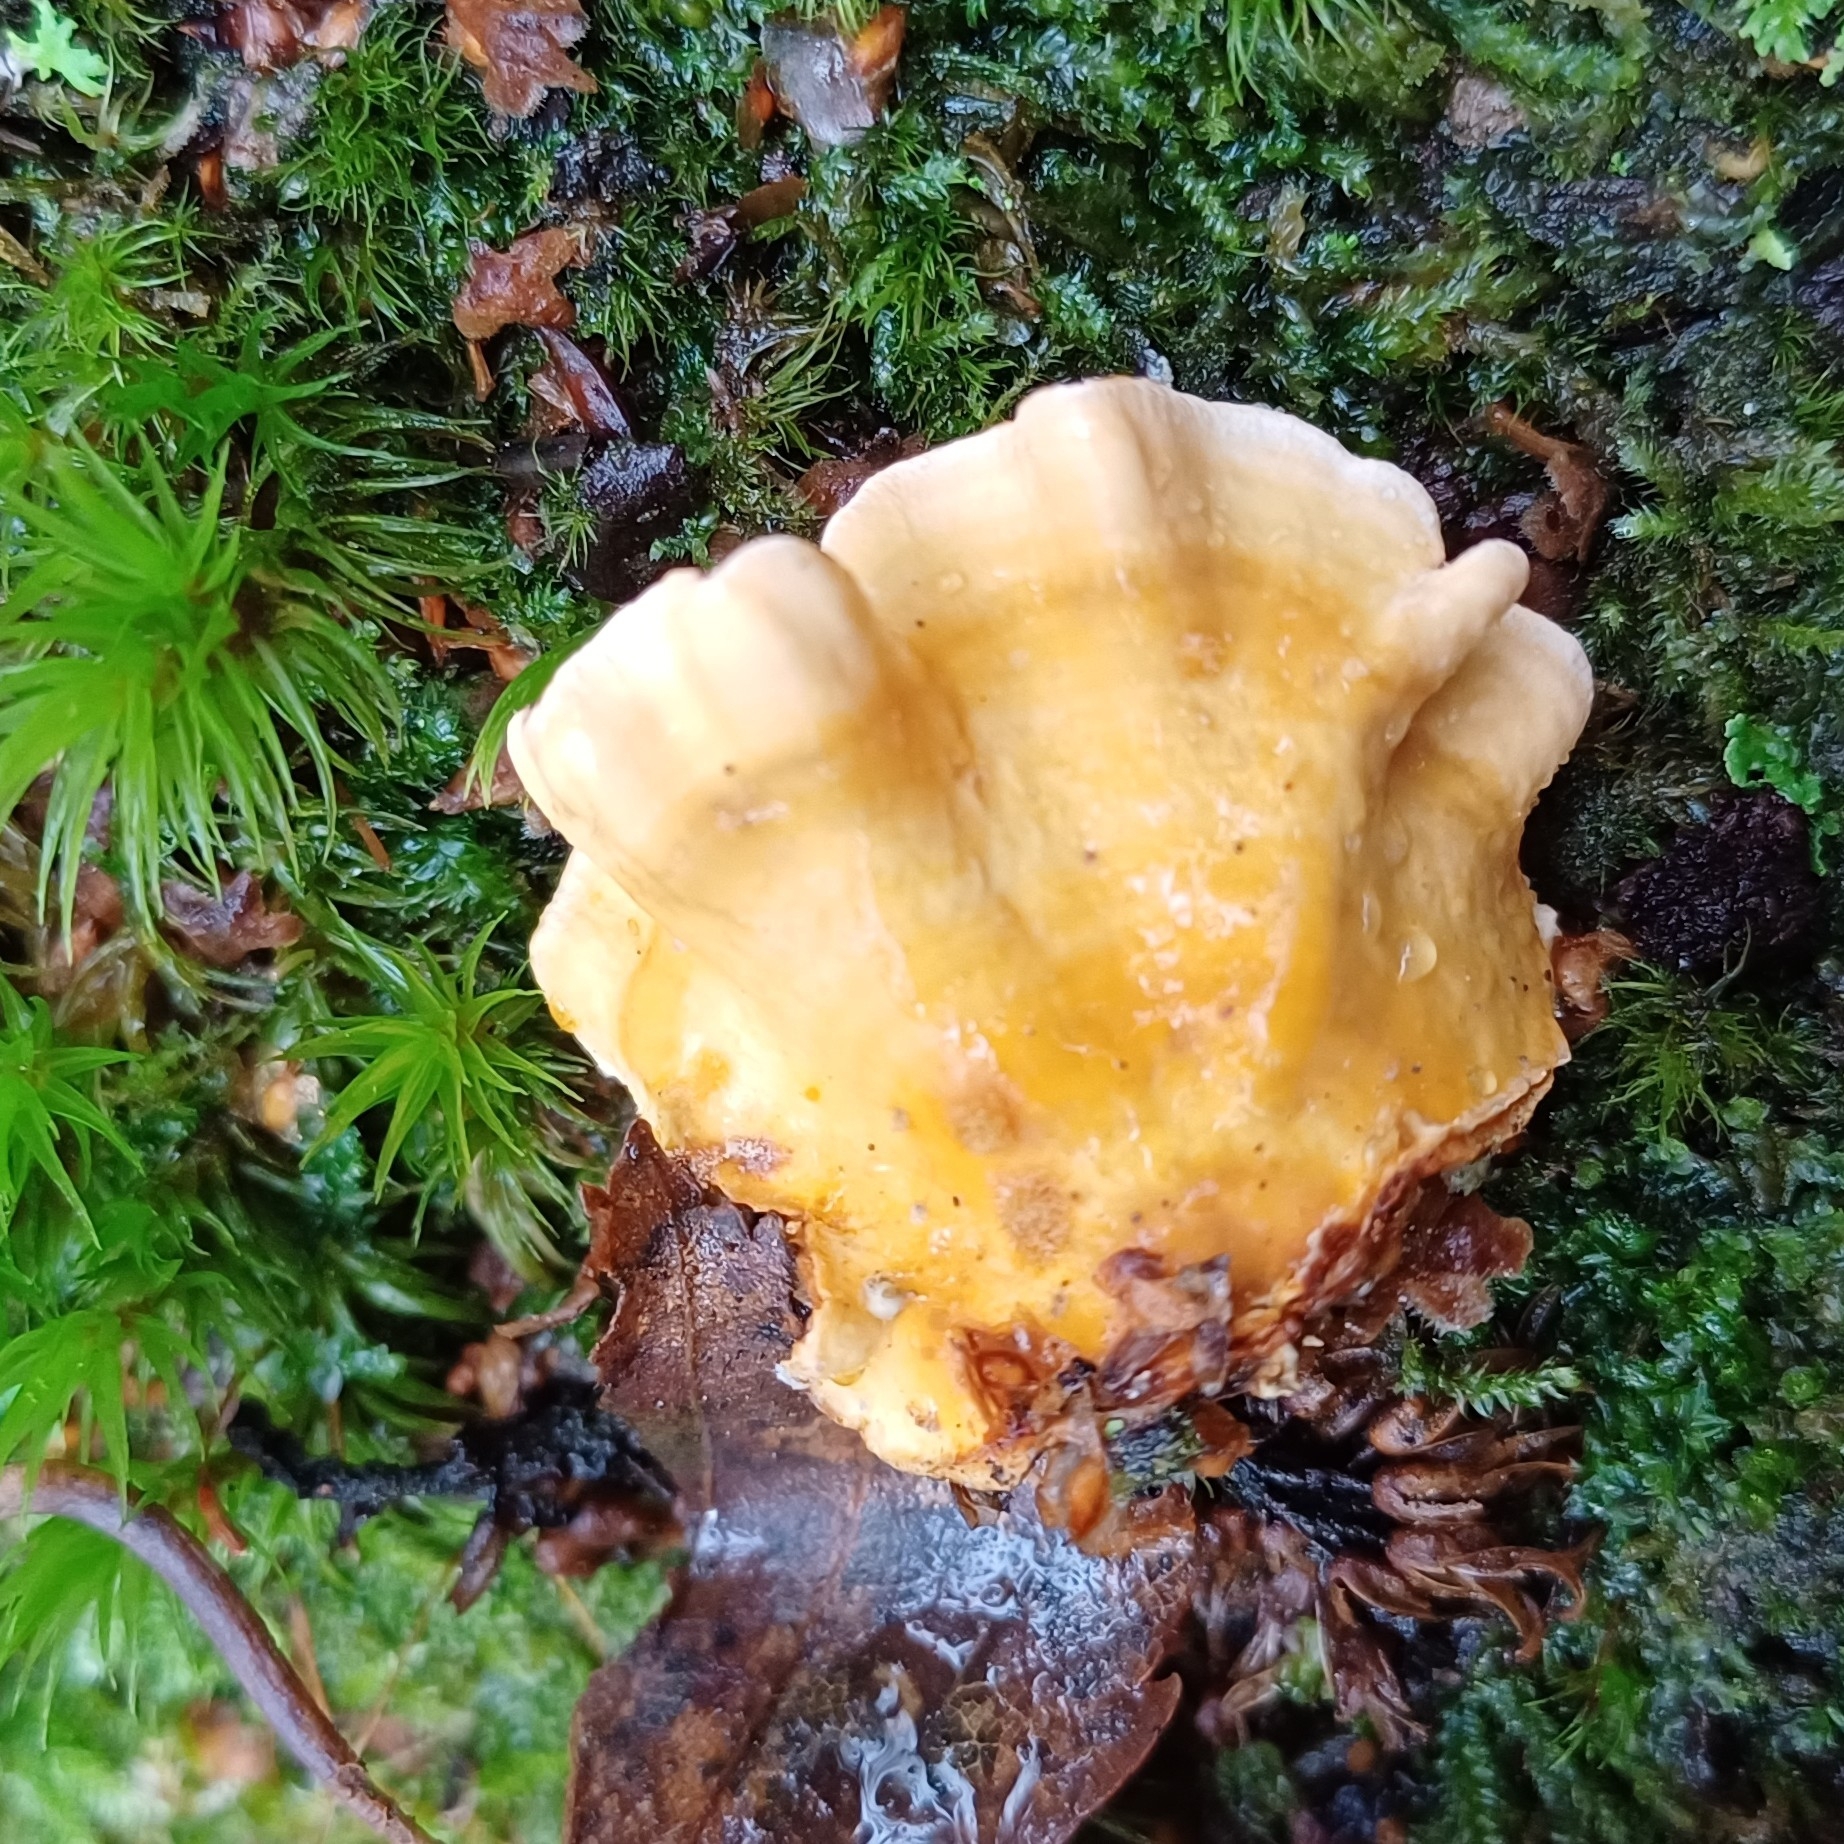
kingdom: Fungi
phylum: Basidiomycota
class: Agaricomycetes
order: Russulales
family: Stereaceae
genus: Stereum
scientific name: Stereum hirsutum
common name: Hairy curtain crust
